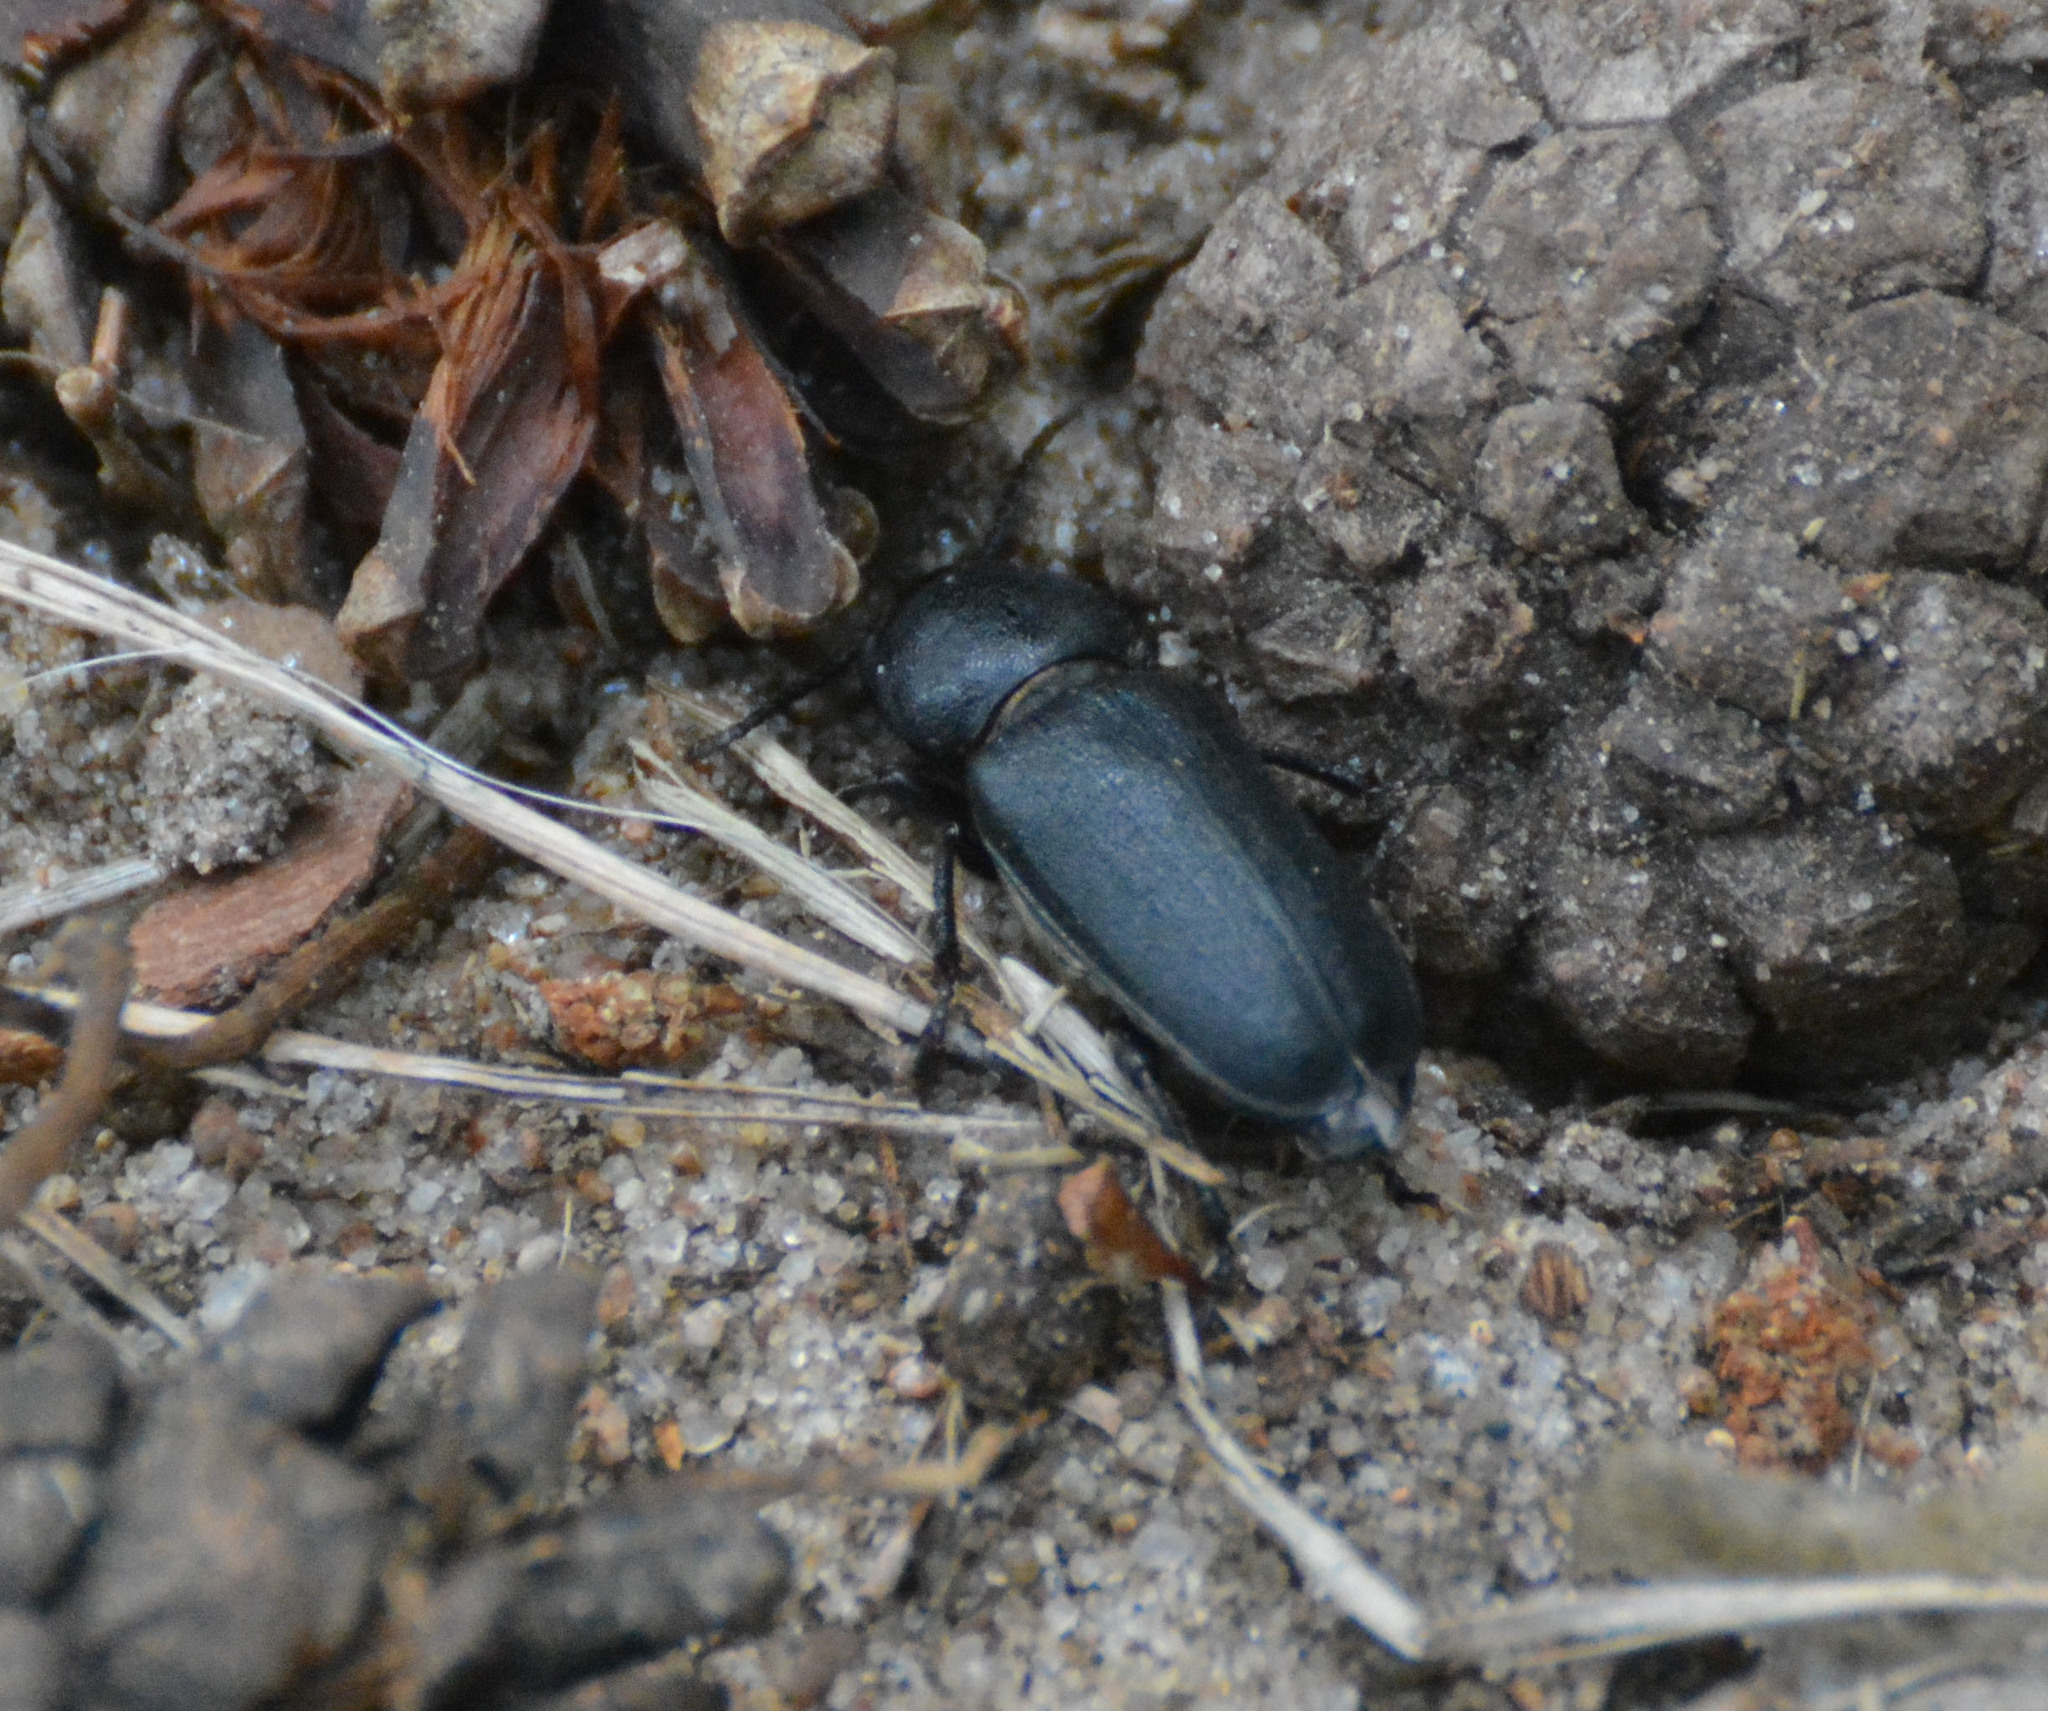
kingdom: Animalia
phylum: Arthropoda
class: Insecta
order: Coleoptera
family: Cerambycidae
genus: Spondylis
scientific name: Spondylis buprestoides
